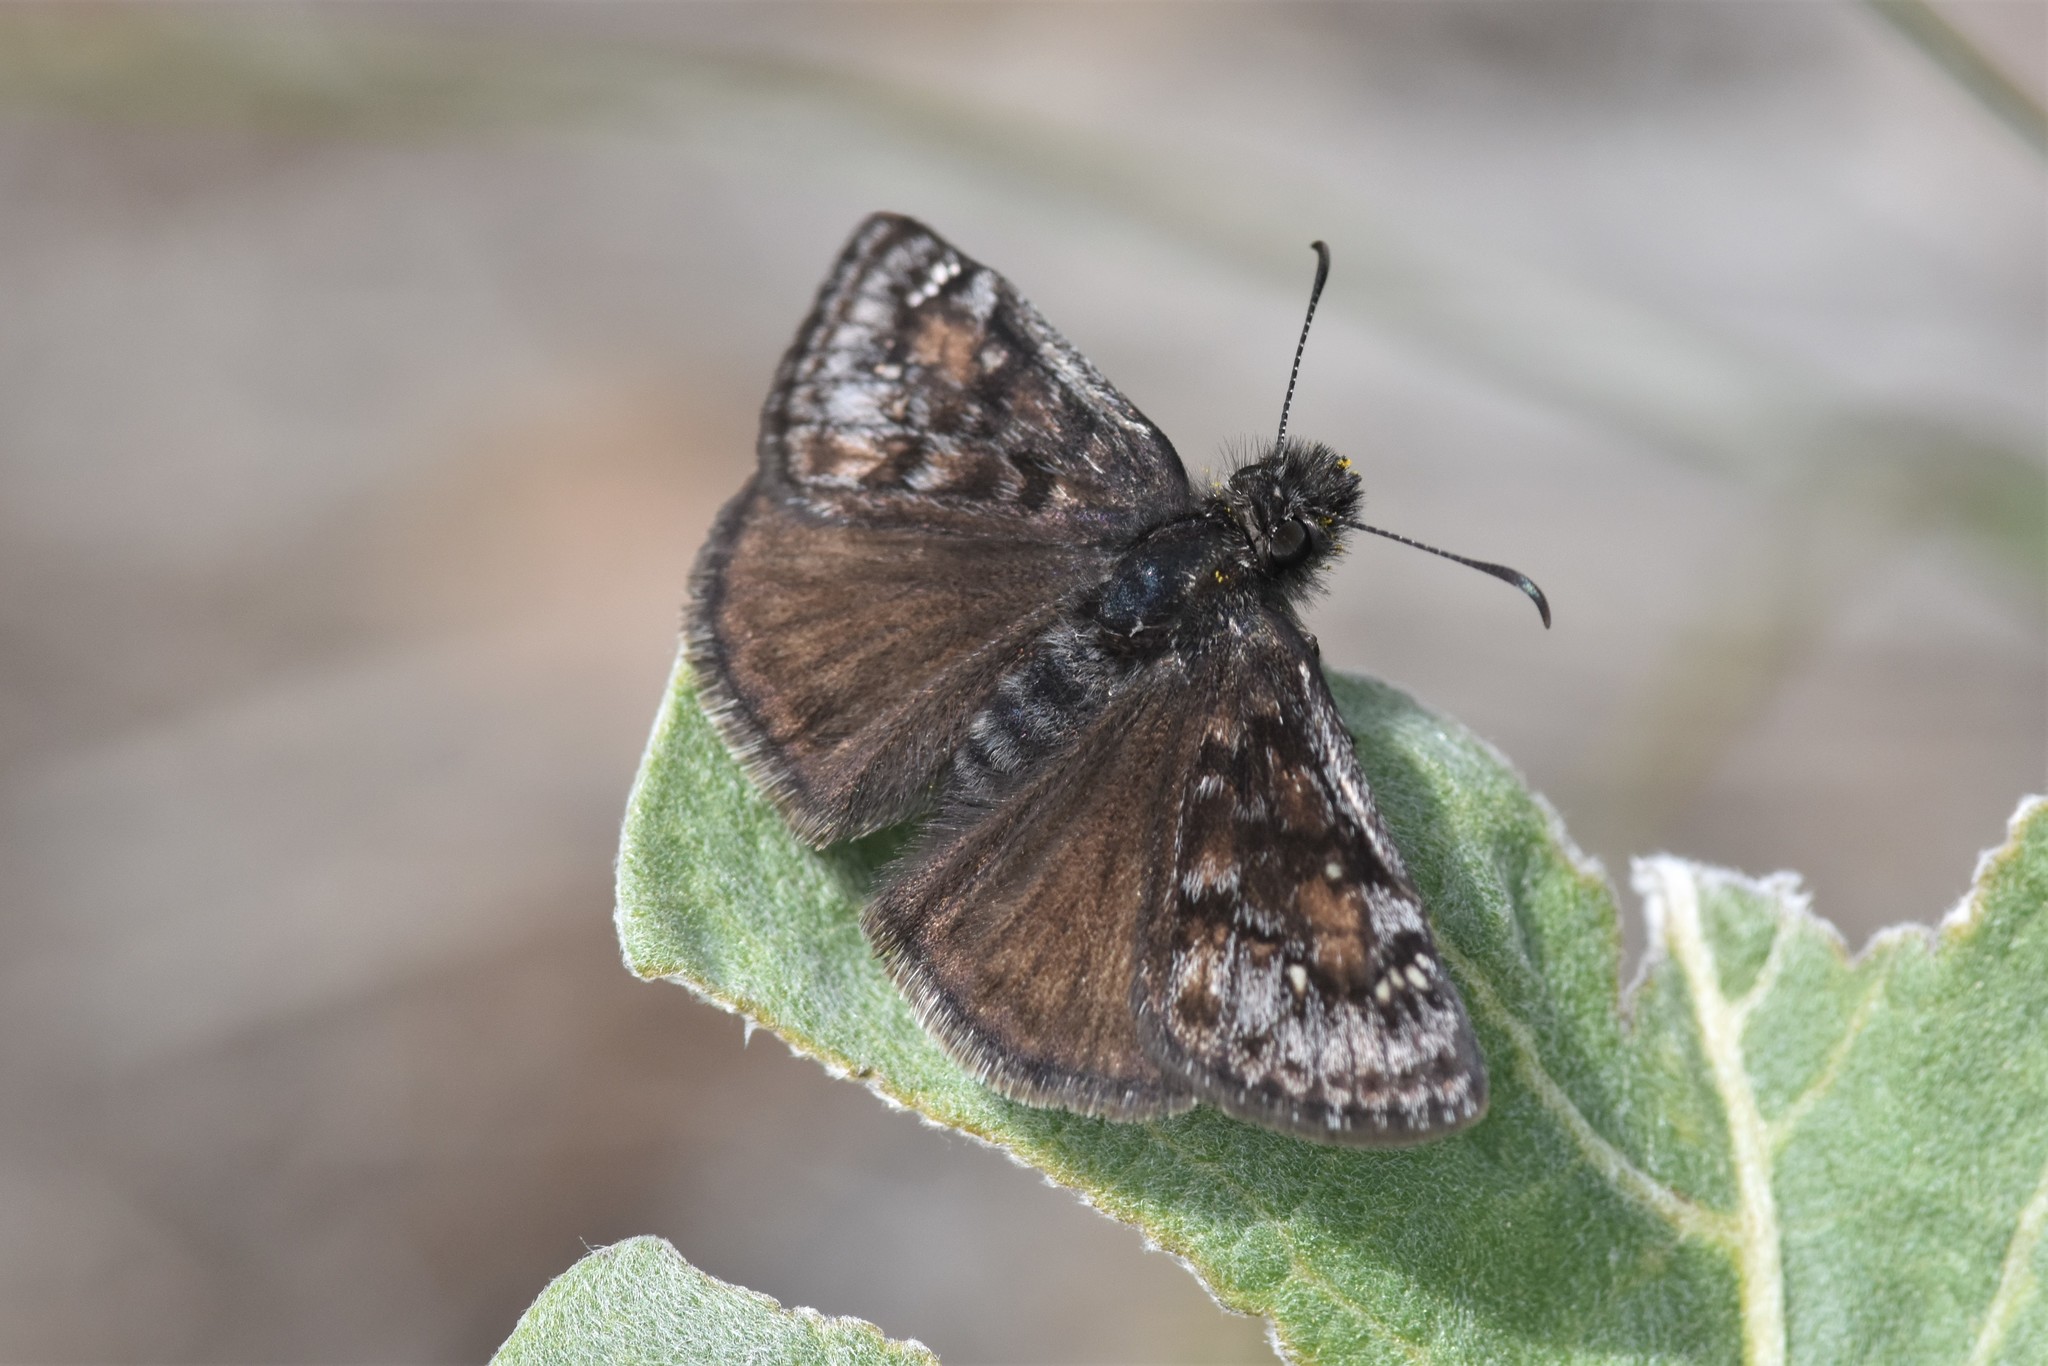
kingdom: Animalia
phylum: Arthropoda
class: Insecta
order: Lepidoptera
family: Hesperiidae
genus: Erynnis
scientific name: Erynnis pacuvius
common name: Pacuvius duskywing
